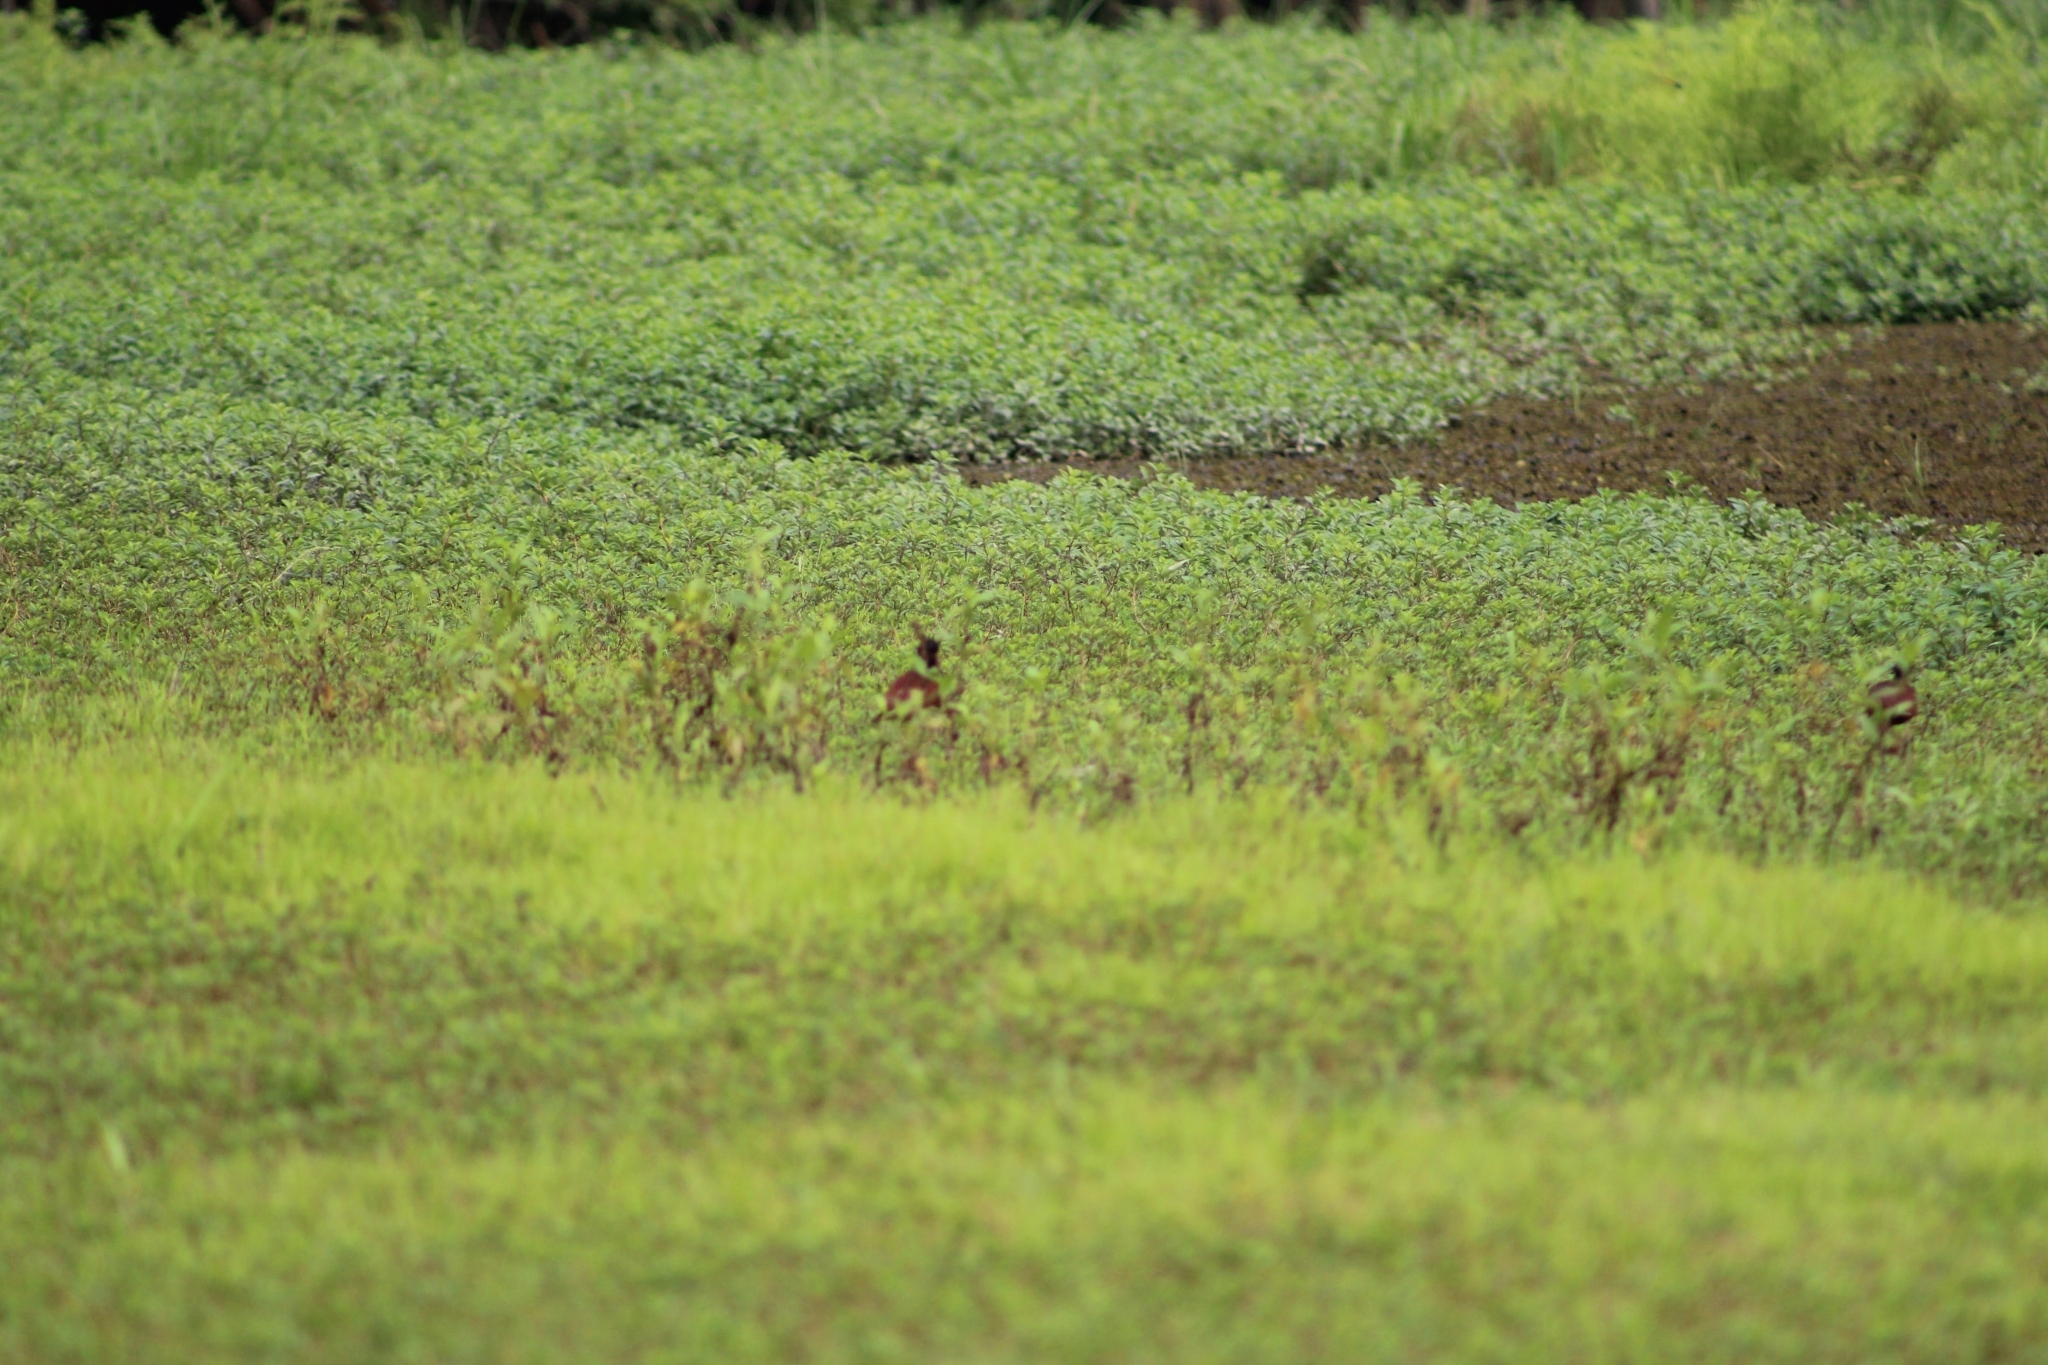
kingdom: Animalia
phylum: Chordata
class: Aves
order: Charadriiformes
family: Jacanidae
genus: Jacana
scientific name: Jacana jacana
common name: Wattled jacana
